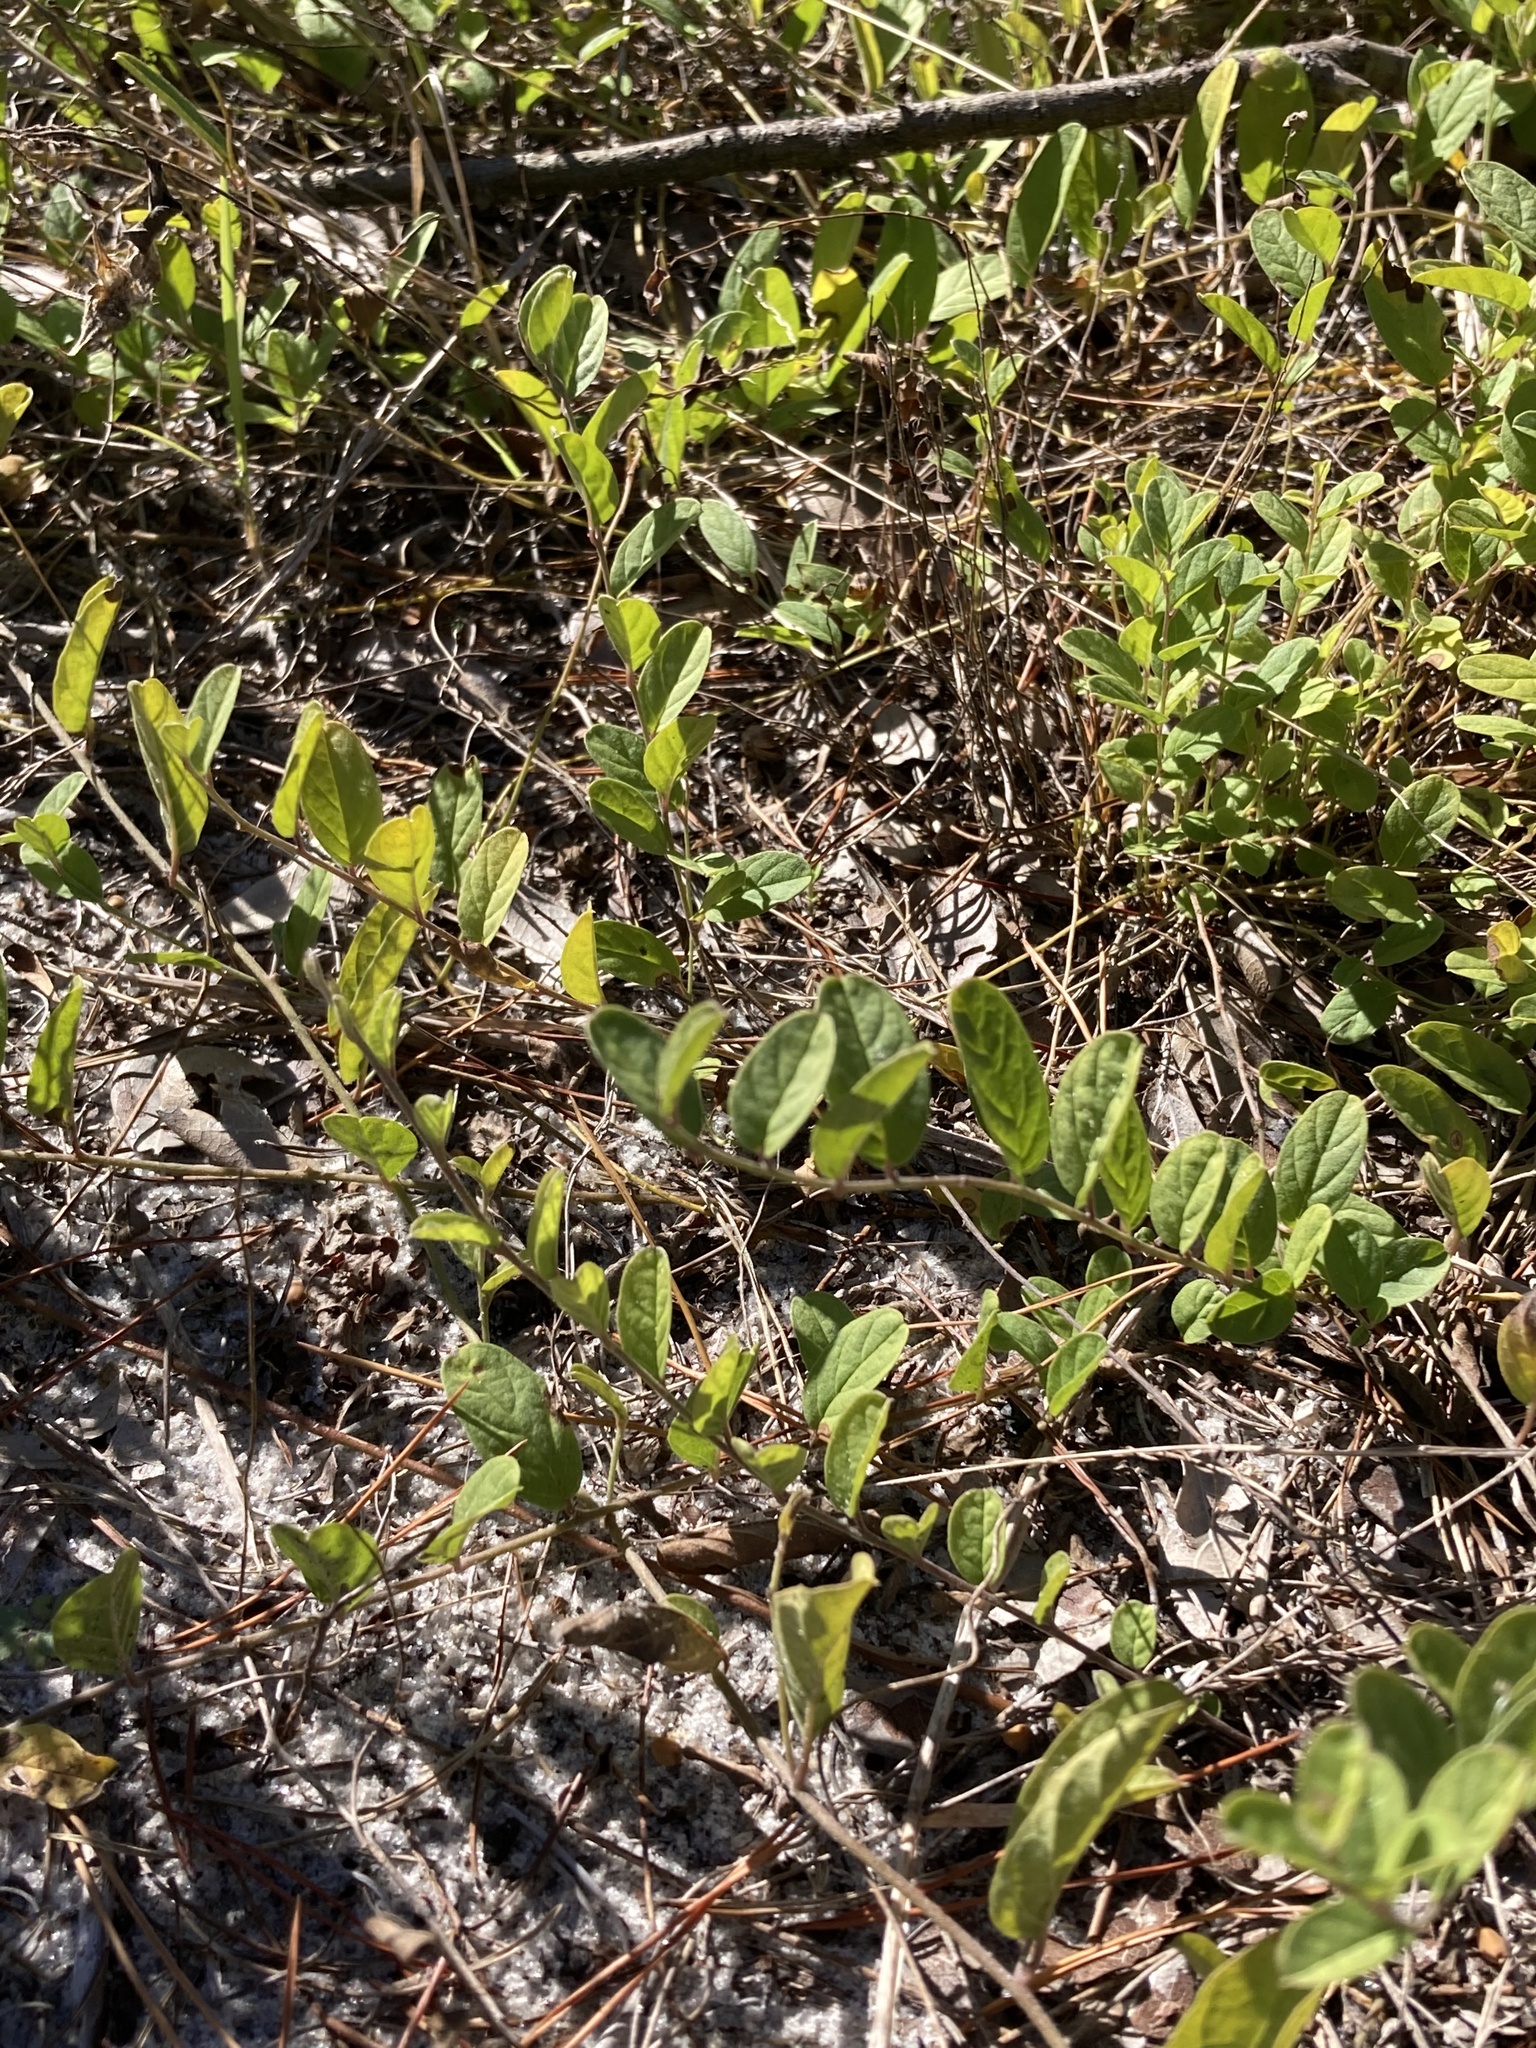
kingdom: Plantae
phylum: Tracheophyta
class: Magnoliopsida
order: Solanales
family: Convolvulaceae
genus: Stylisma
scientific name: Stylisma villosa
